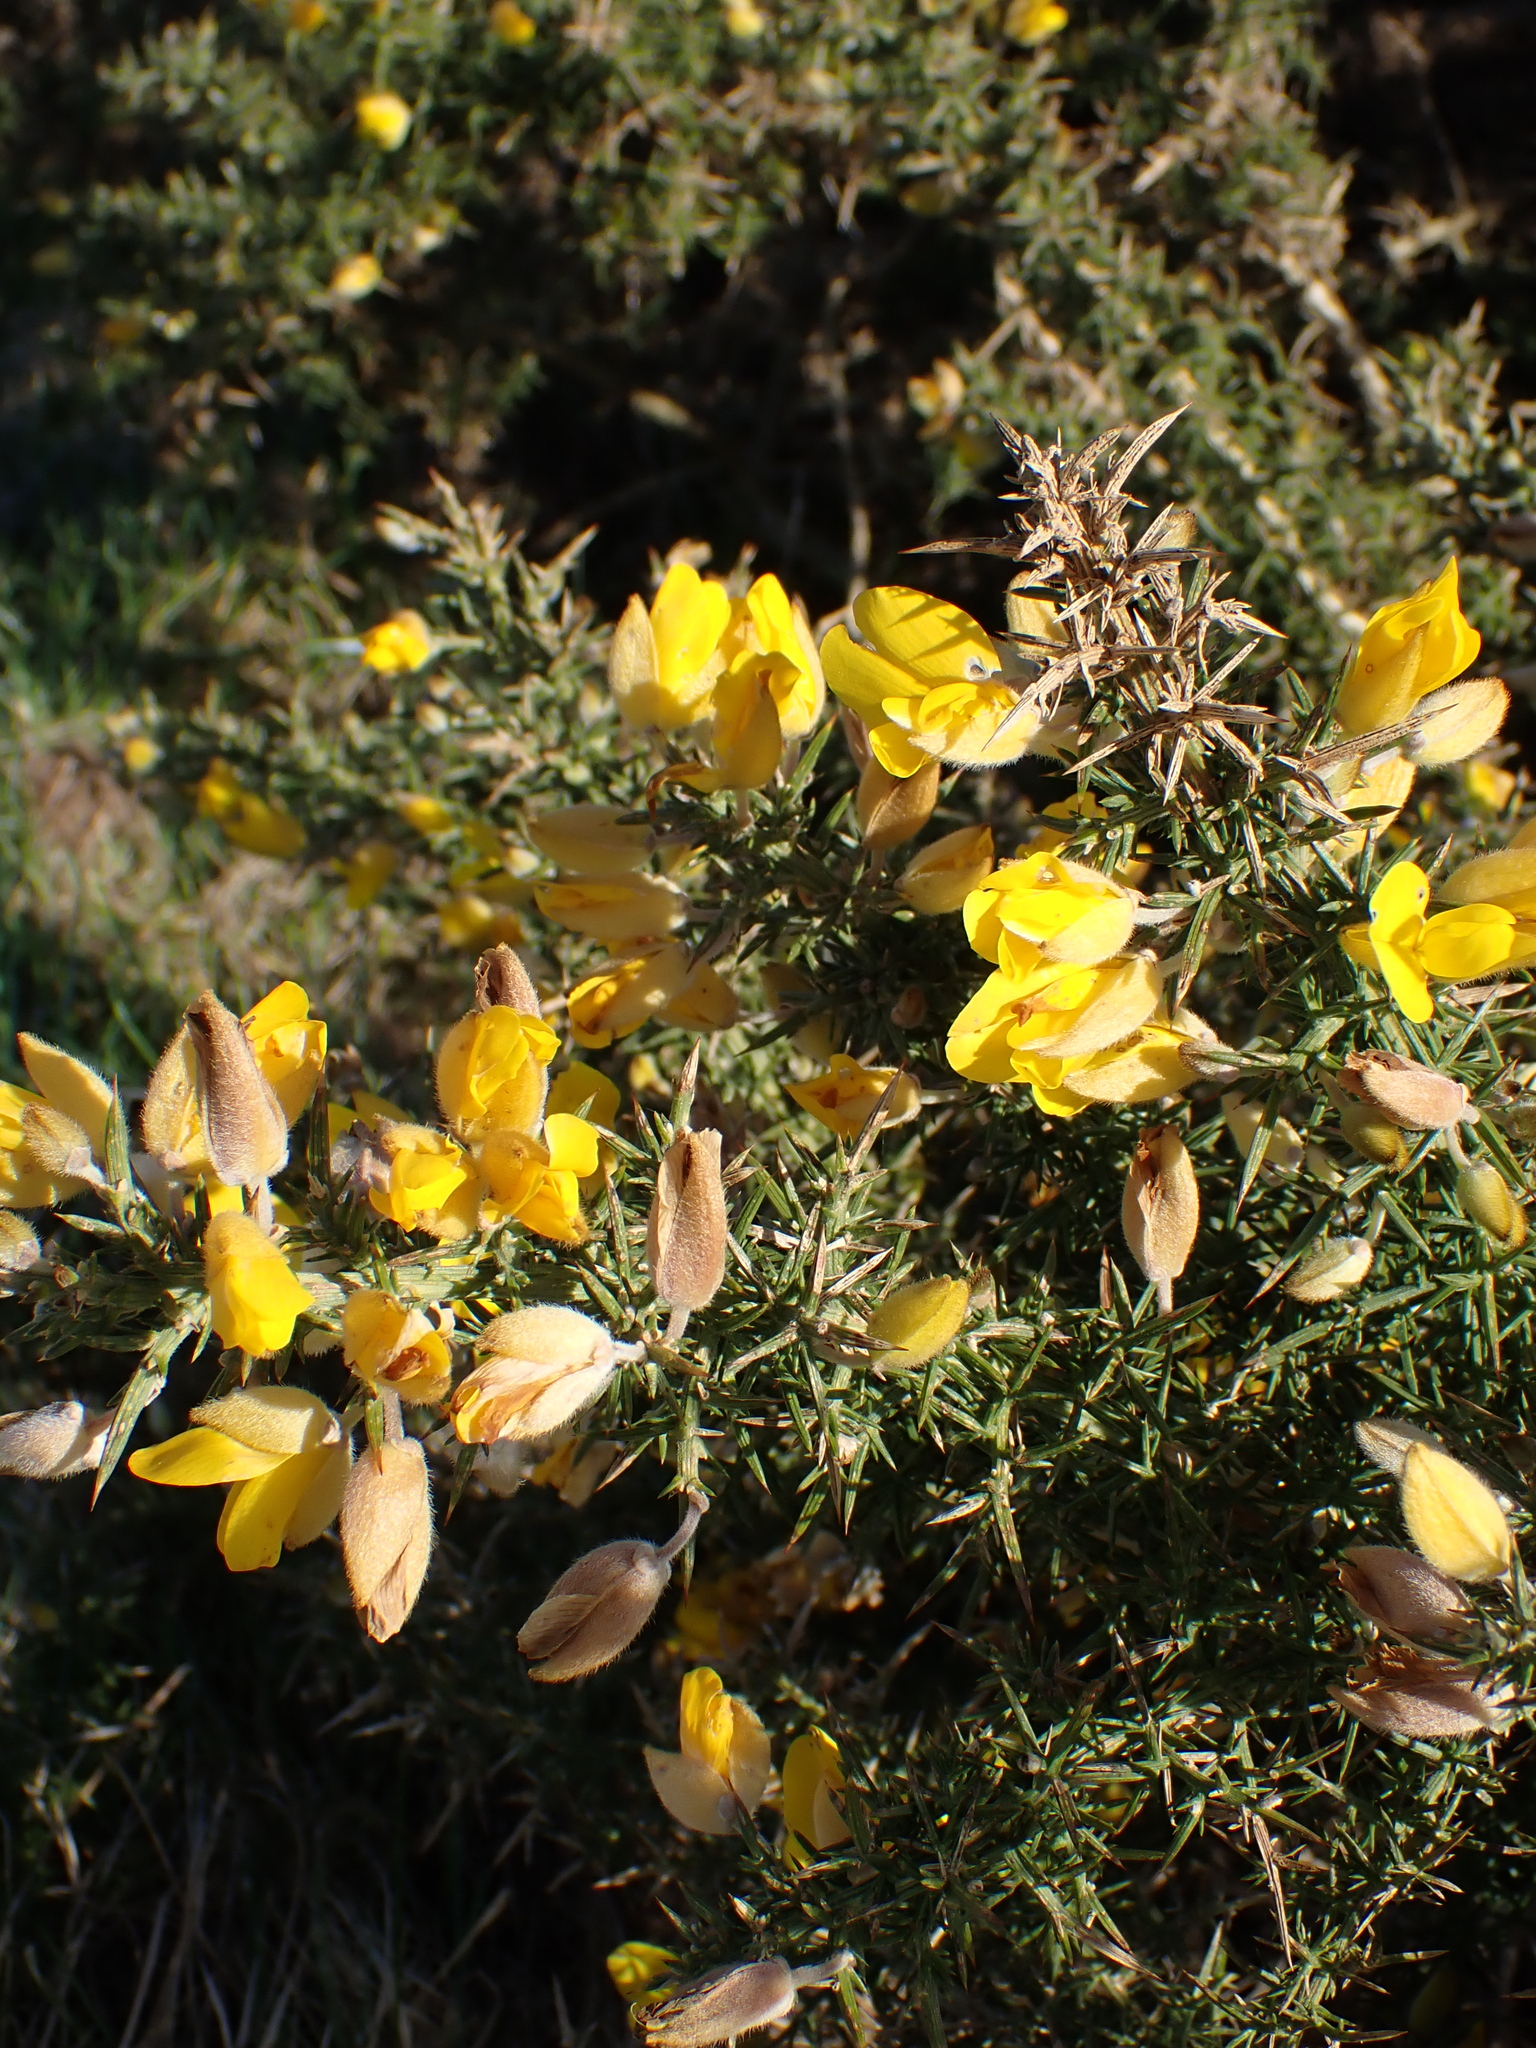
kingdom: Plantae
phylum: Tracheophyta
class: Magnoliopsida
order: Fabales
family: Fabaceae
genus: Ulex
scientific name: Ulex europaeus
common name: Common gorse
